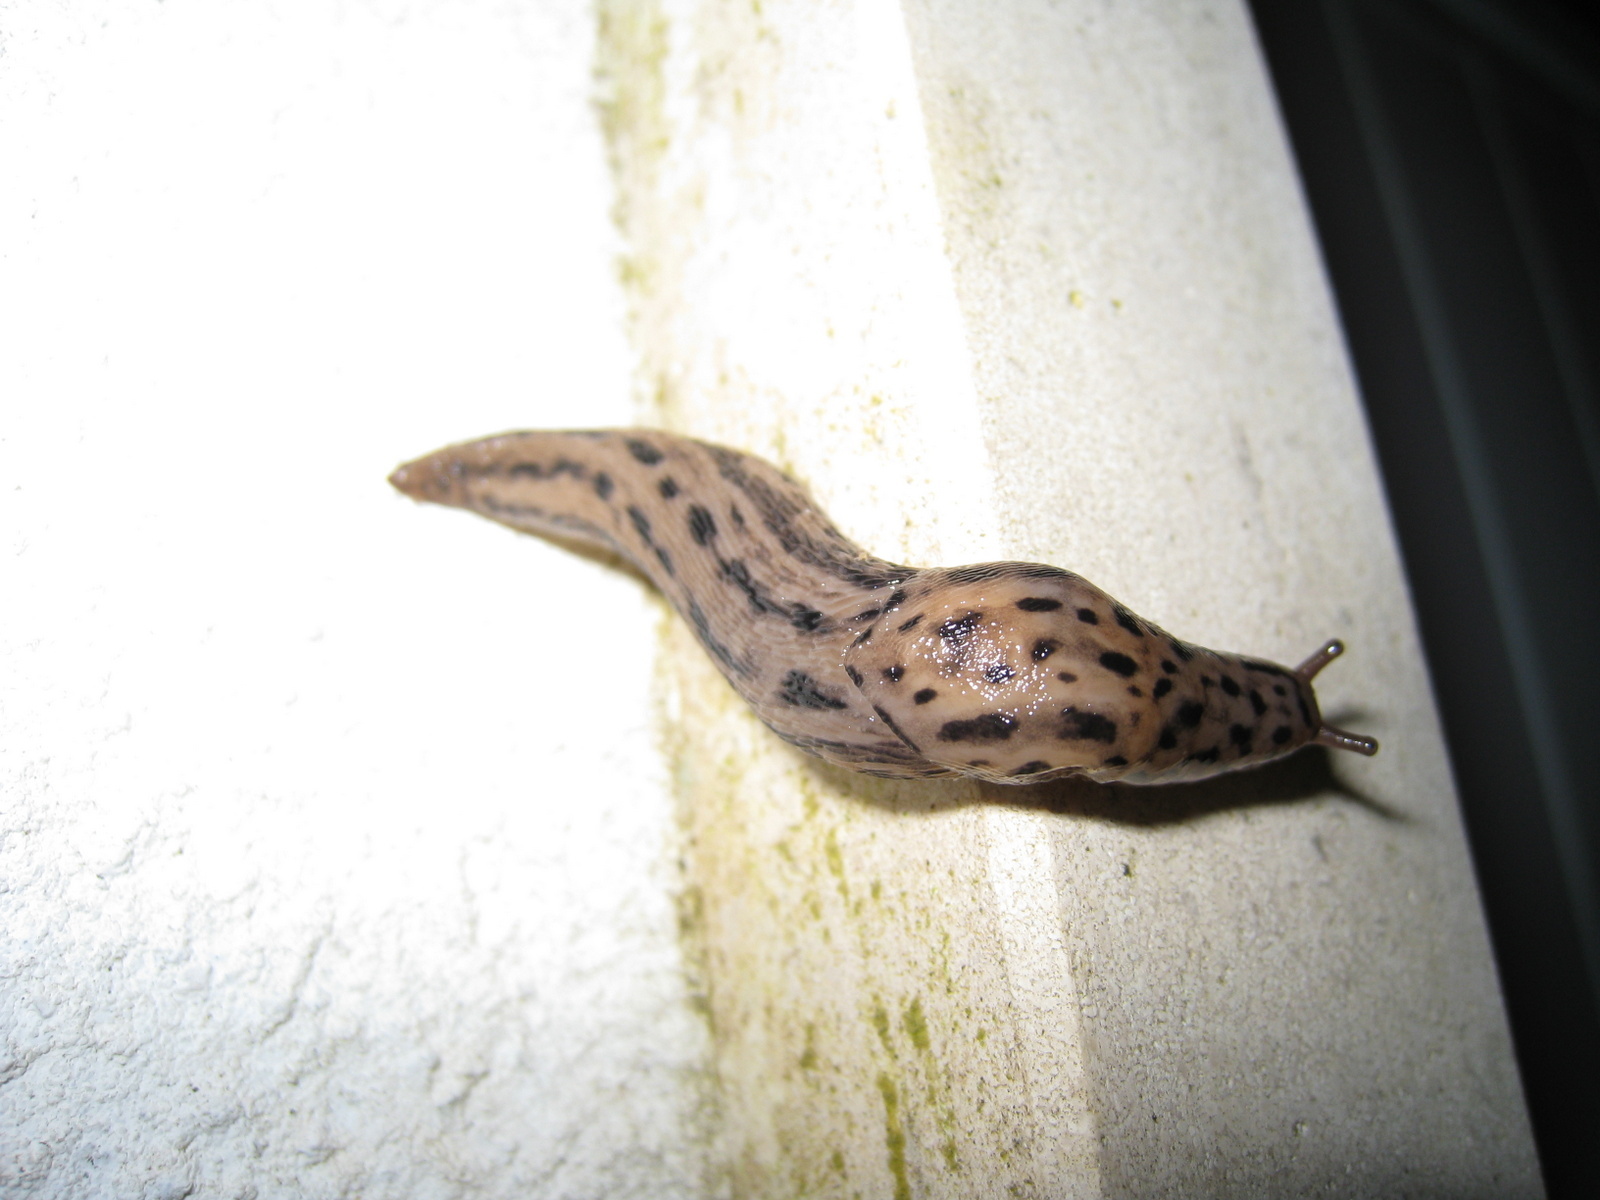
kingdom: Animalia
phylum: Mollusca
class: Gastropoda
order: Stylommatophora
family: Limacidae
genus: Limax
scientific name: Limax maximus
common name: Great grey slug
